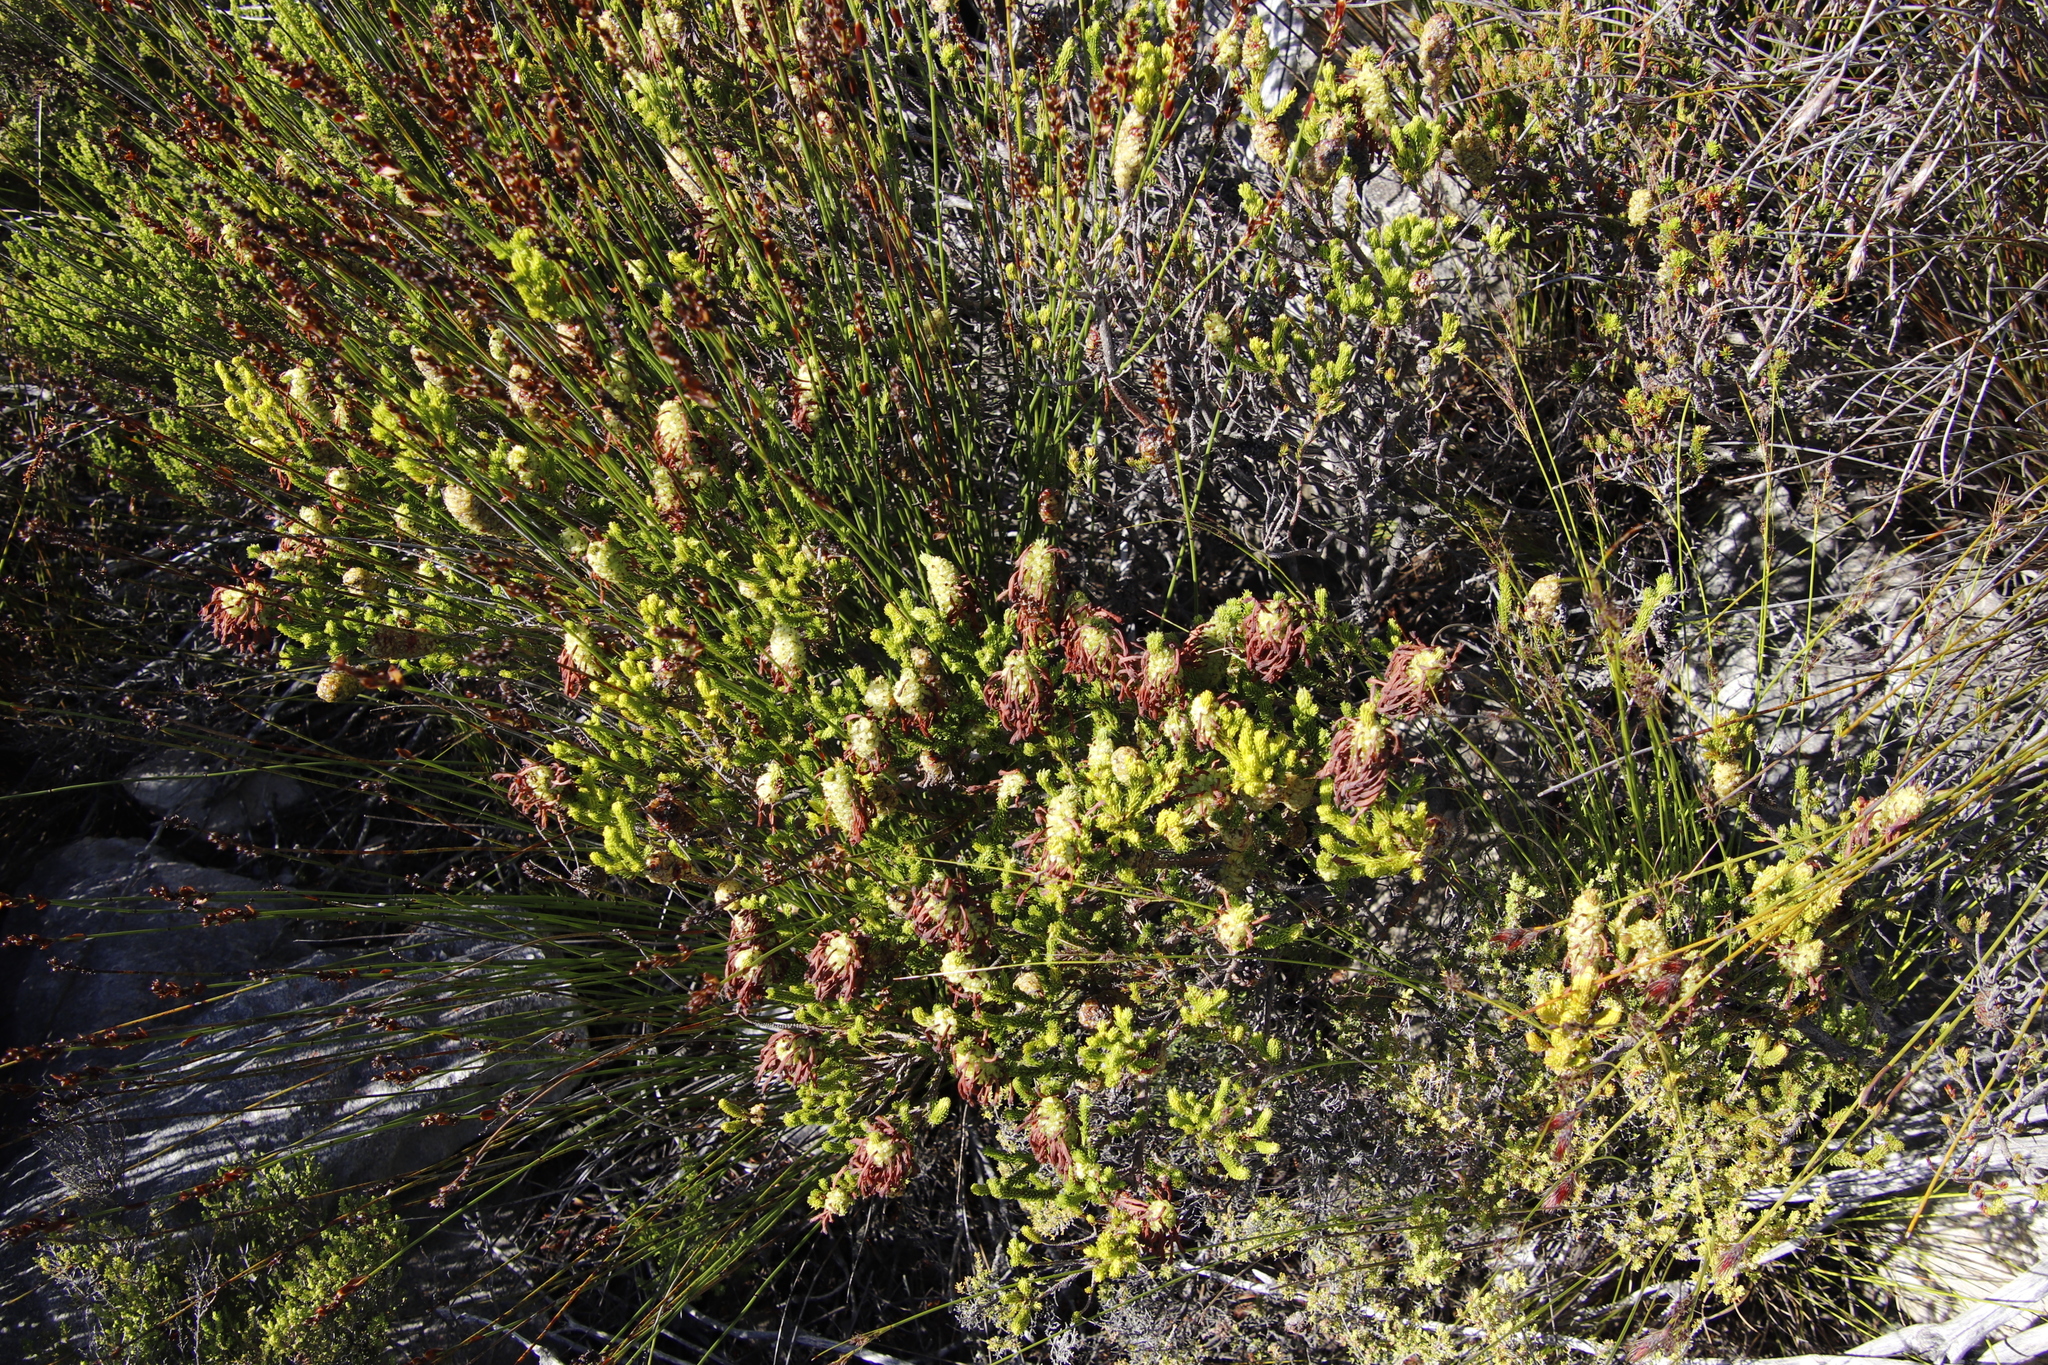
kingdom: Plantae
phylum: Tracheophyta
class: Magnoliopsida
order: Ericales
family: Ericaceae
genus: Erica
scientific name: Erica sessiliflora
